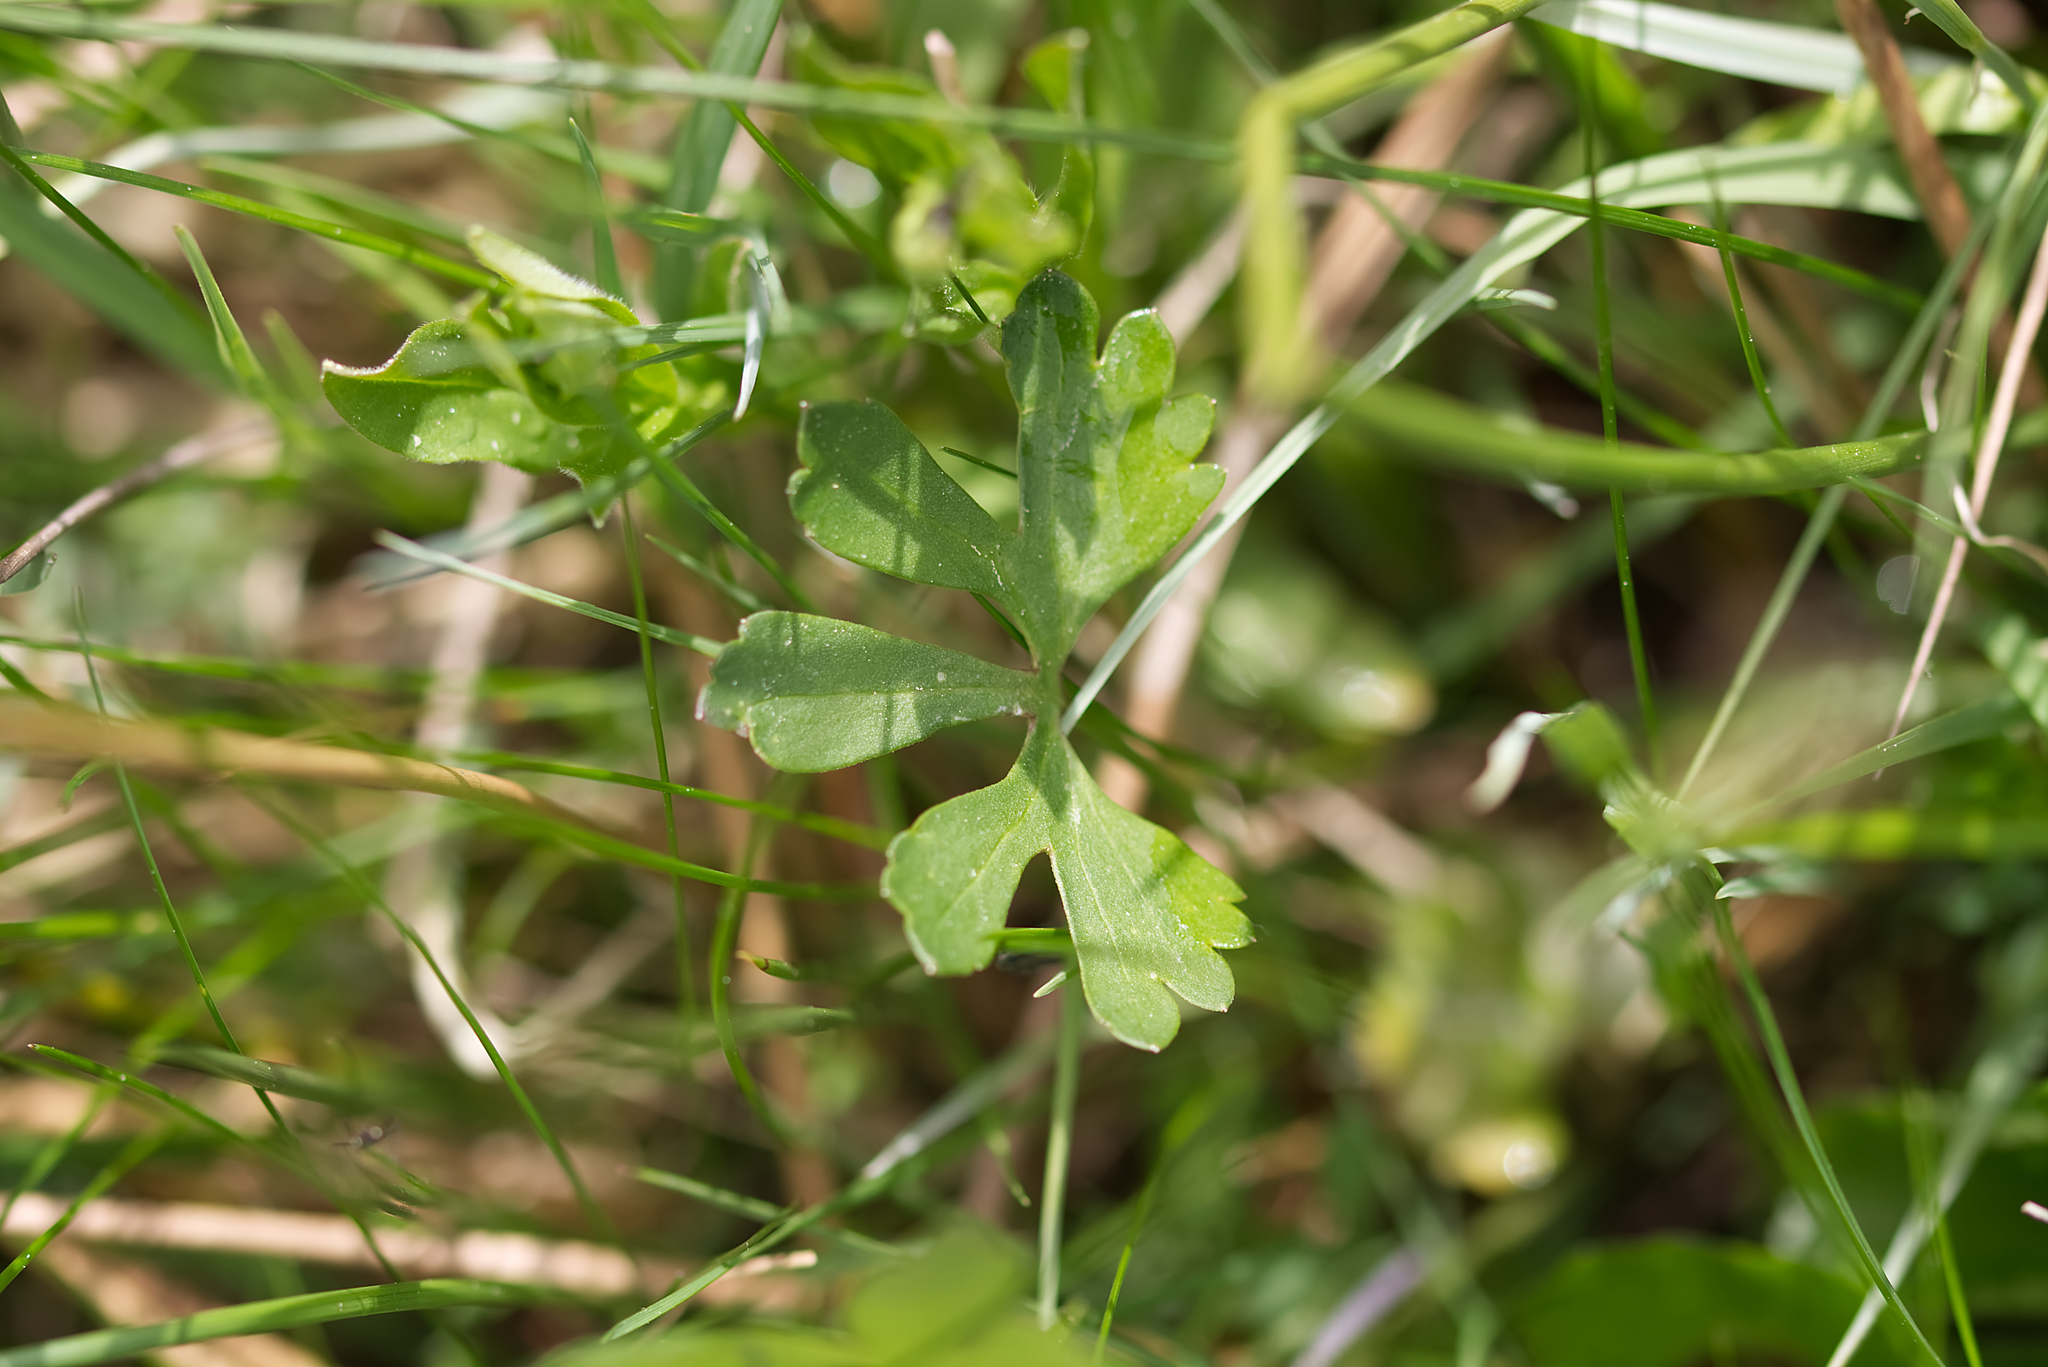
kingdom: Plantae
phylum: Tracheophyta
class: Magnoliopsida
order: Ranunculales
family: Ranunculaceae
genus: Ranunculus
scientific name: Ranunculus auricomus
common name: Goldilocks buttercup
